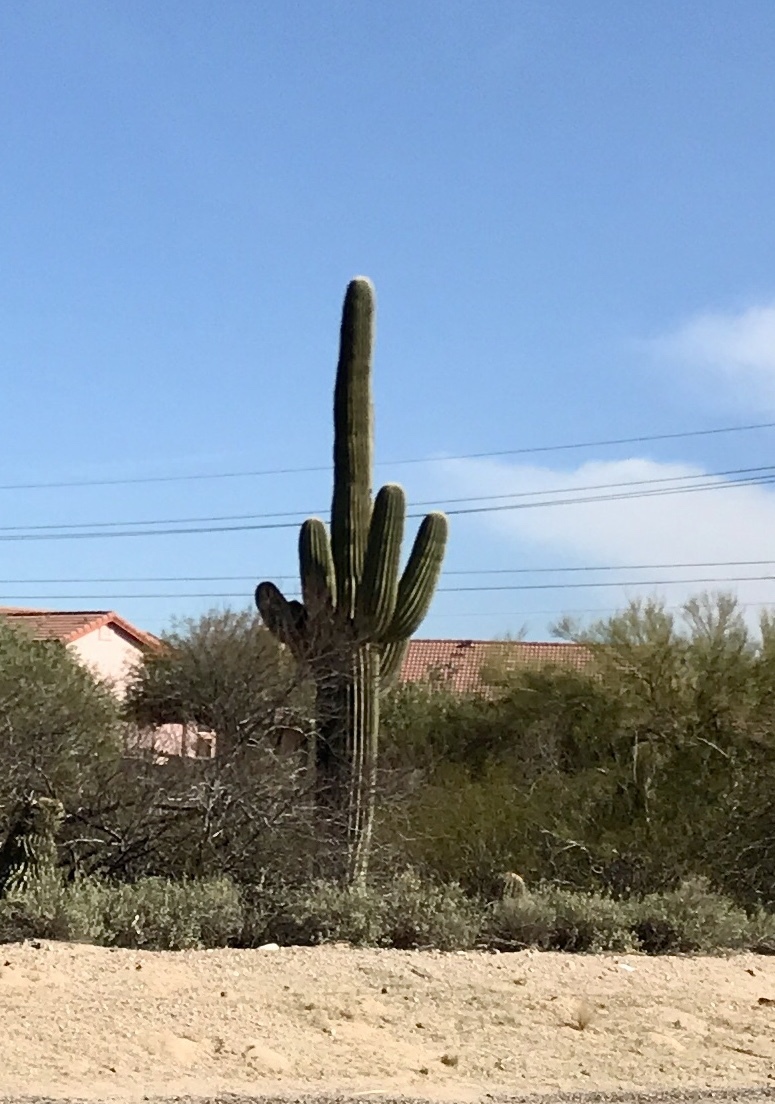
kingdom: Plantae
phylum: Tracheophyta
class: Magnoliopsida
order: Caryophyllales
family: Cactaceae
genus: Carnegiea
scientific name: Carnegiea gigantea
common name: Saguaro
